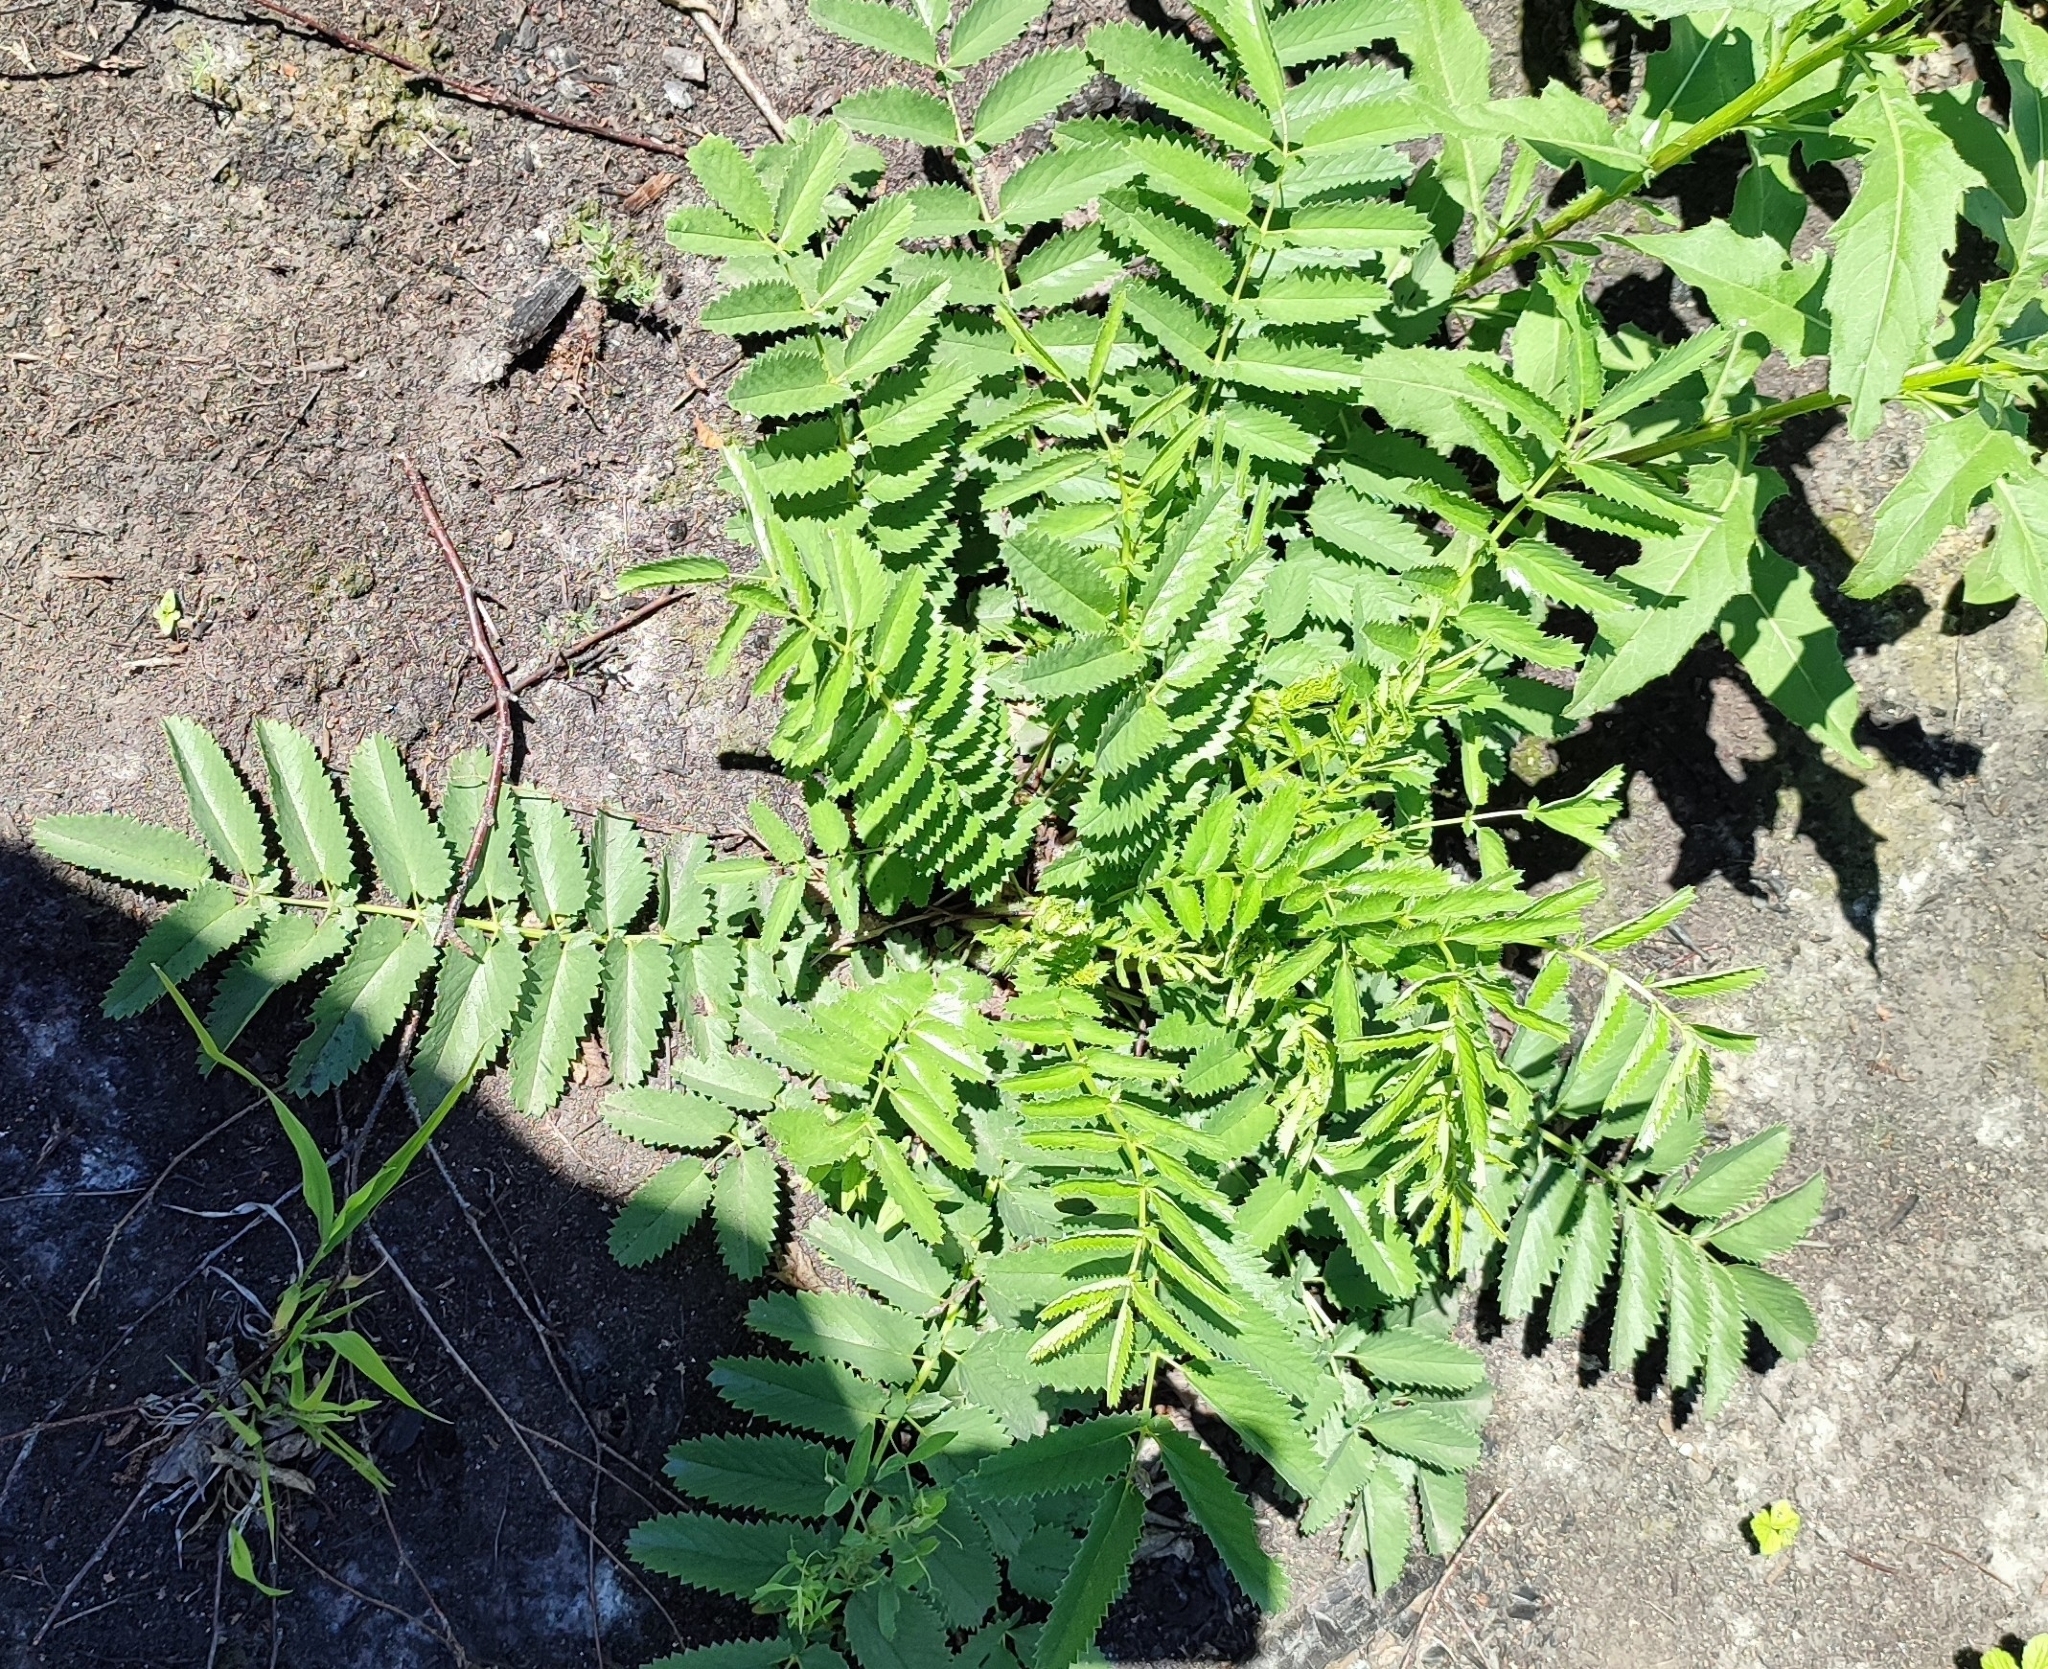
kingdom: Plantae
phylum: Tracheophyta
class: Magnoliopsida
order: Rosales
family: Rosaceae
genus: Sanguisorba
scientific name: Sanguisorba officinalis
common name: Great burnet
